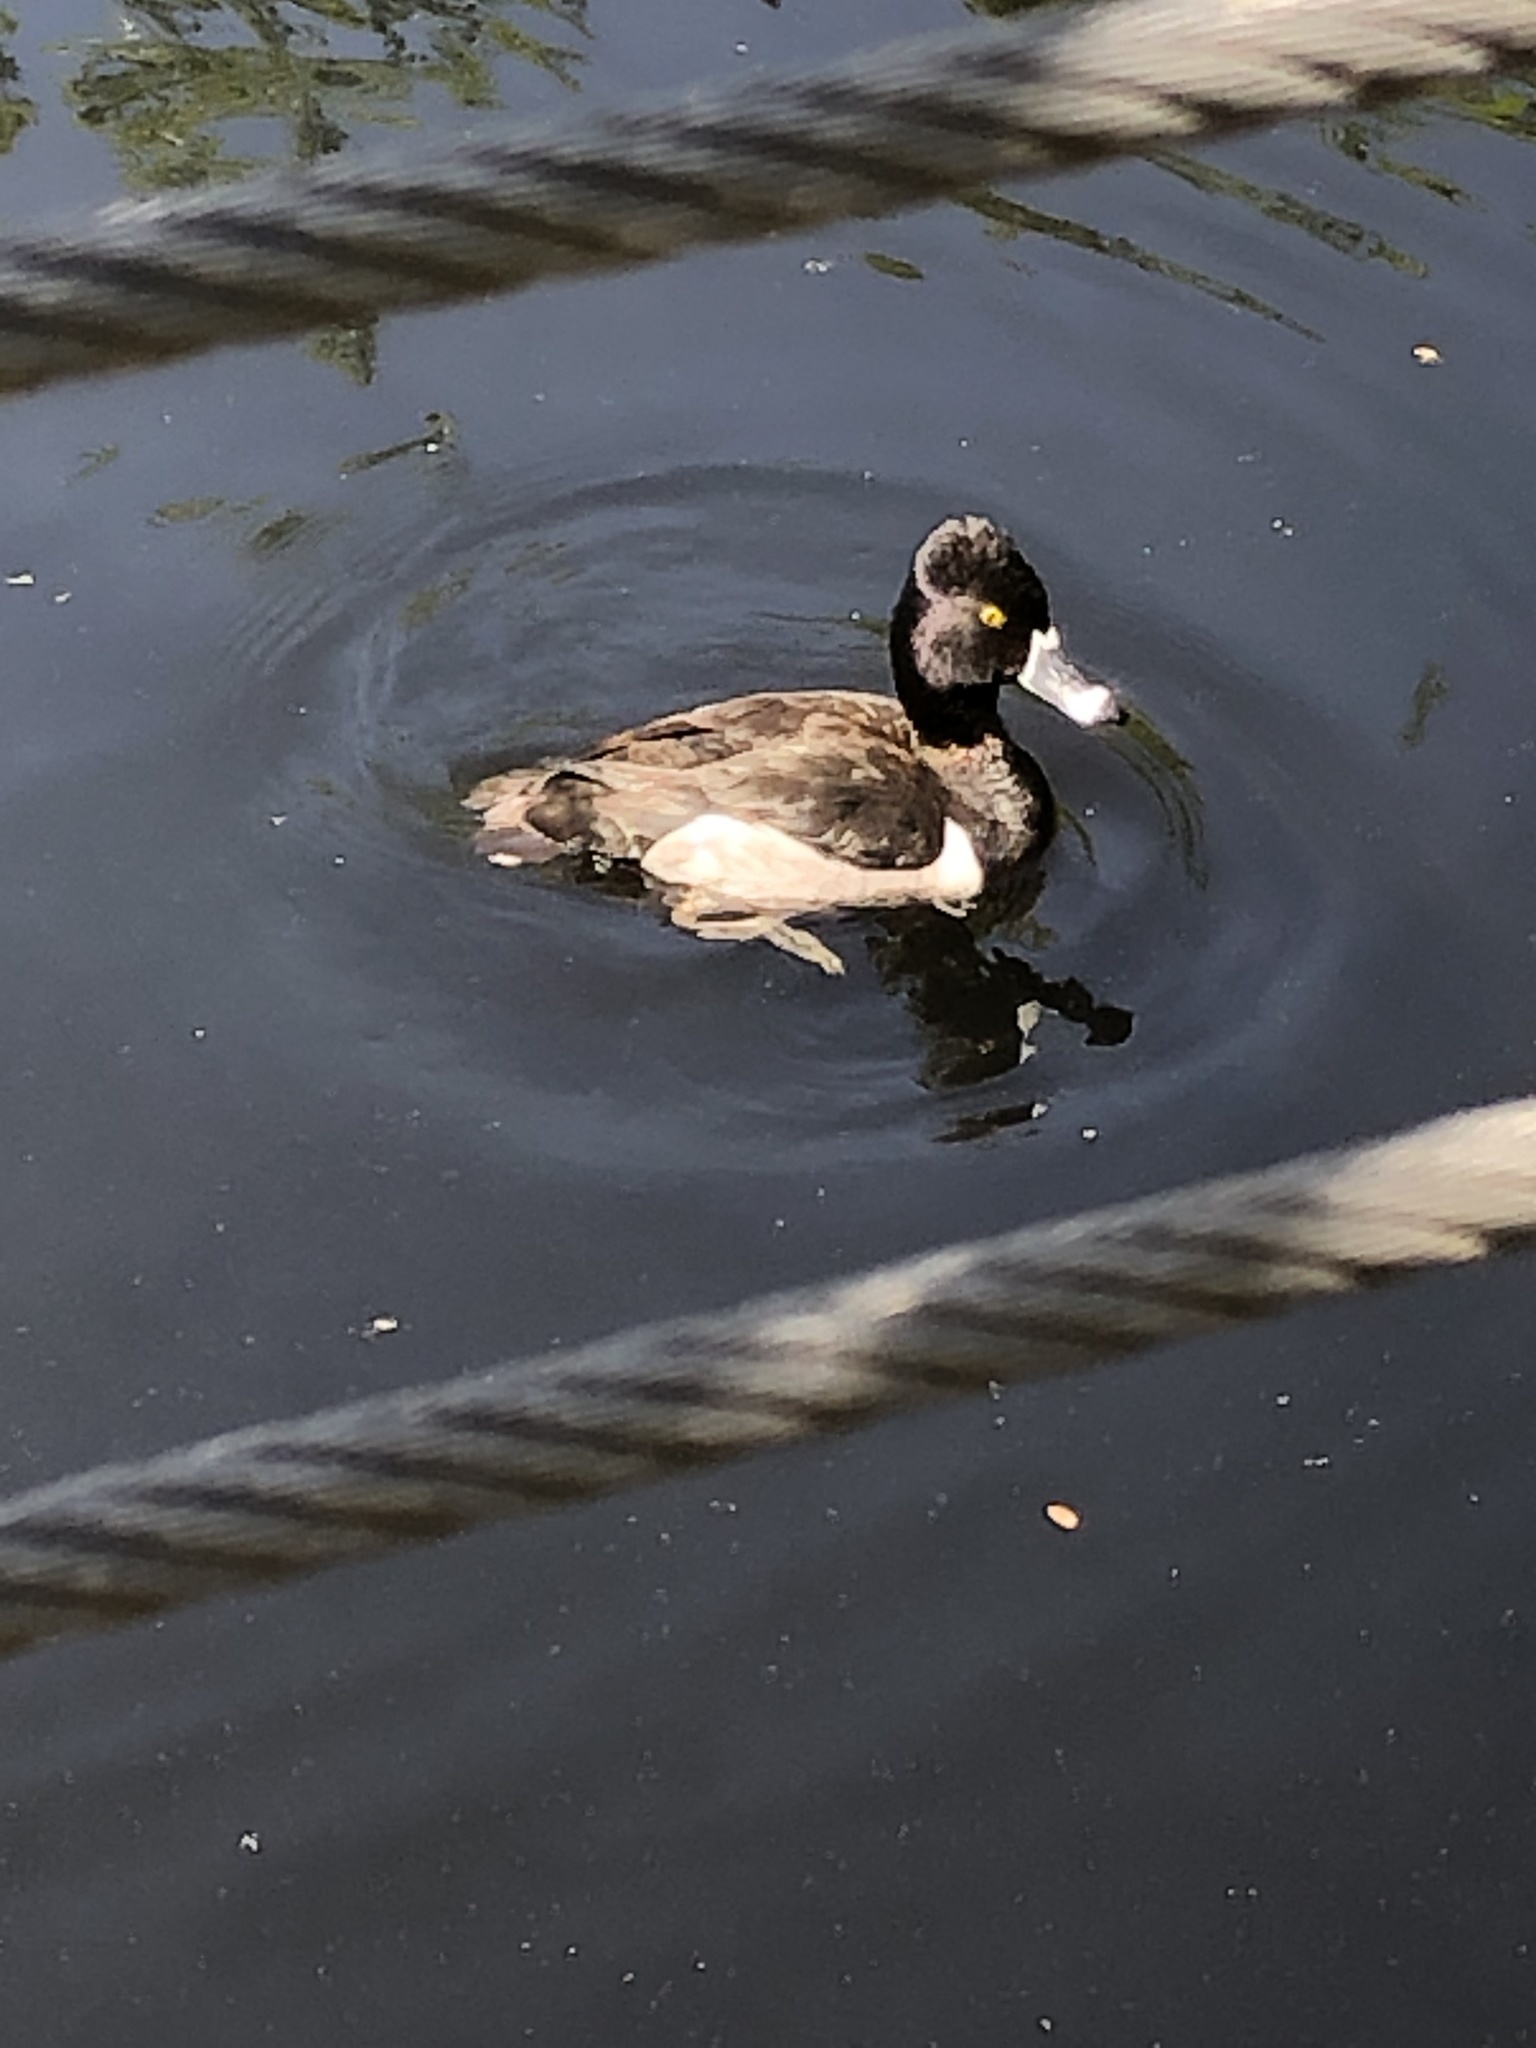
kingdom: Animalia
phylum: Chordata
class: Aves
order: Anseriformes
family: Anatidae
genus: Aythya
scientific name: Aythya collaris
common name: Ring-necked duck
